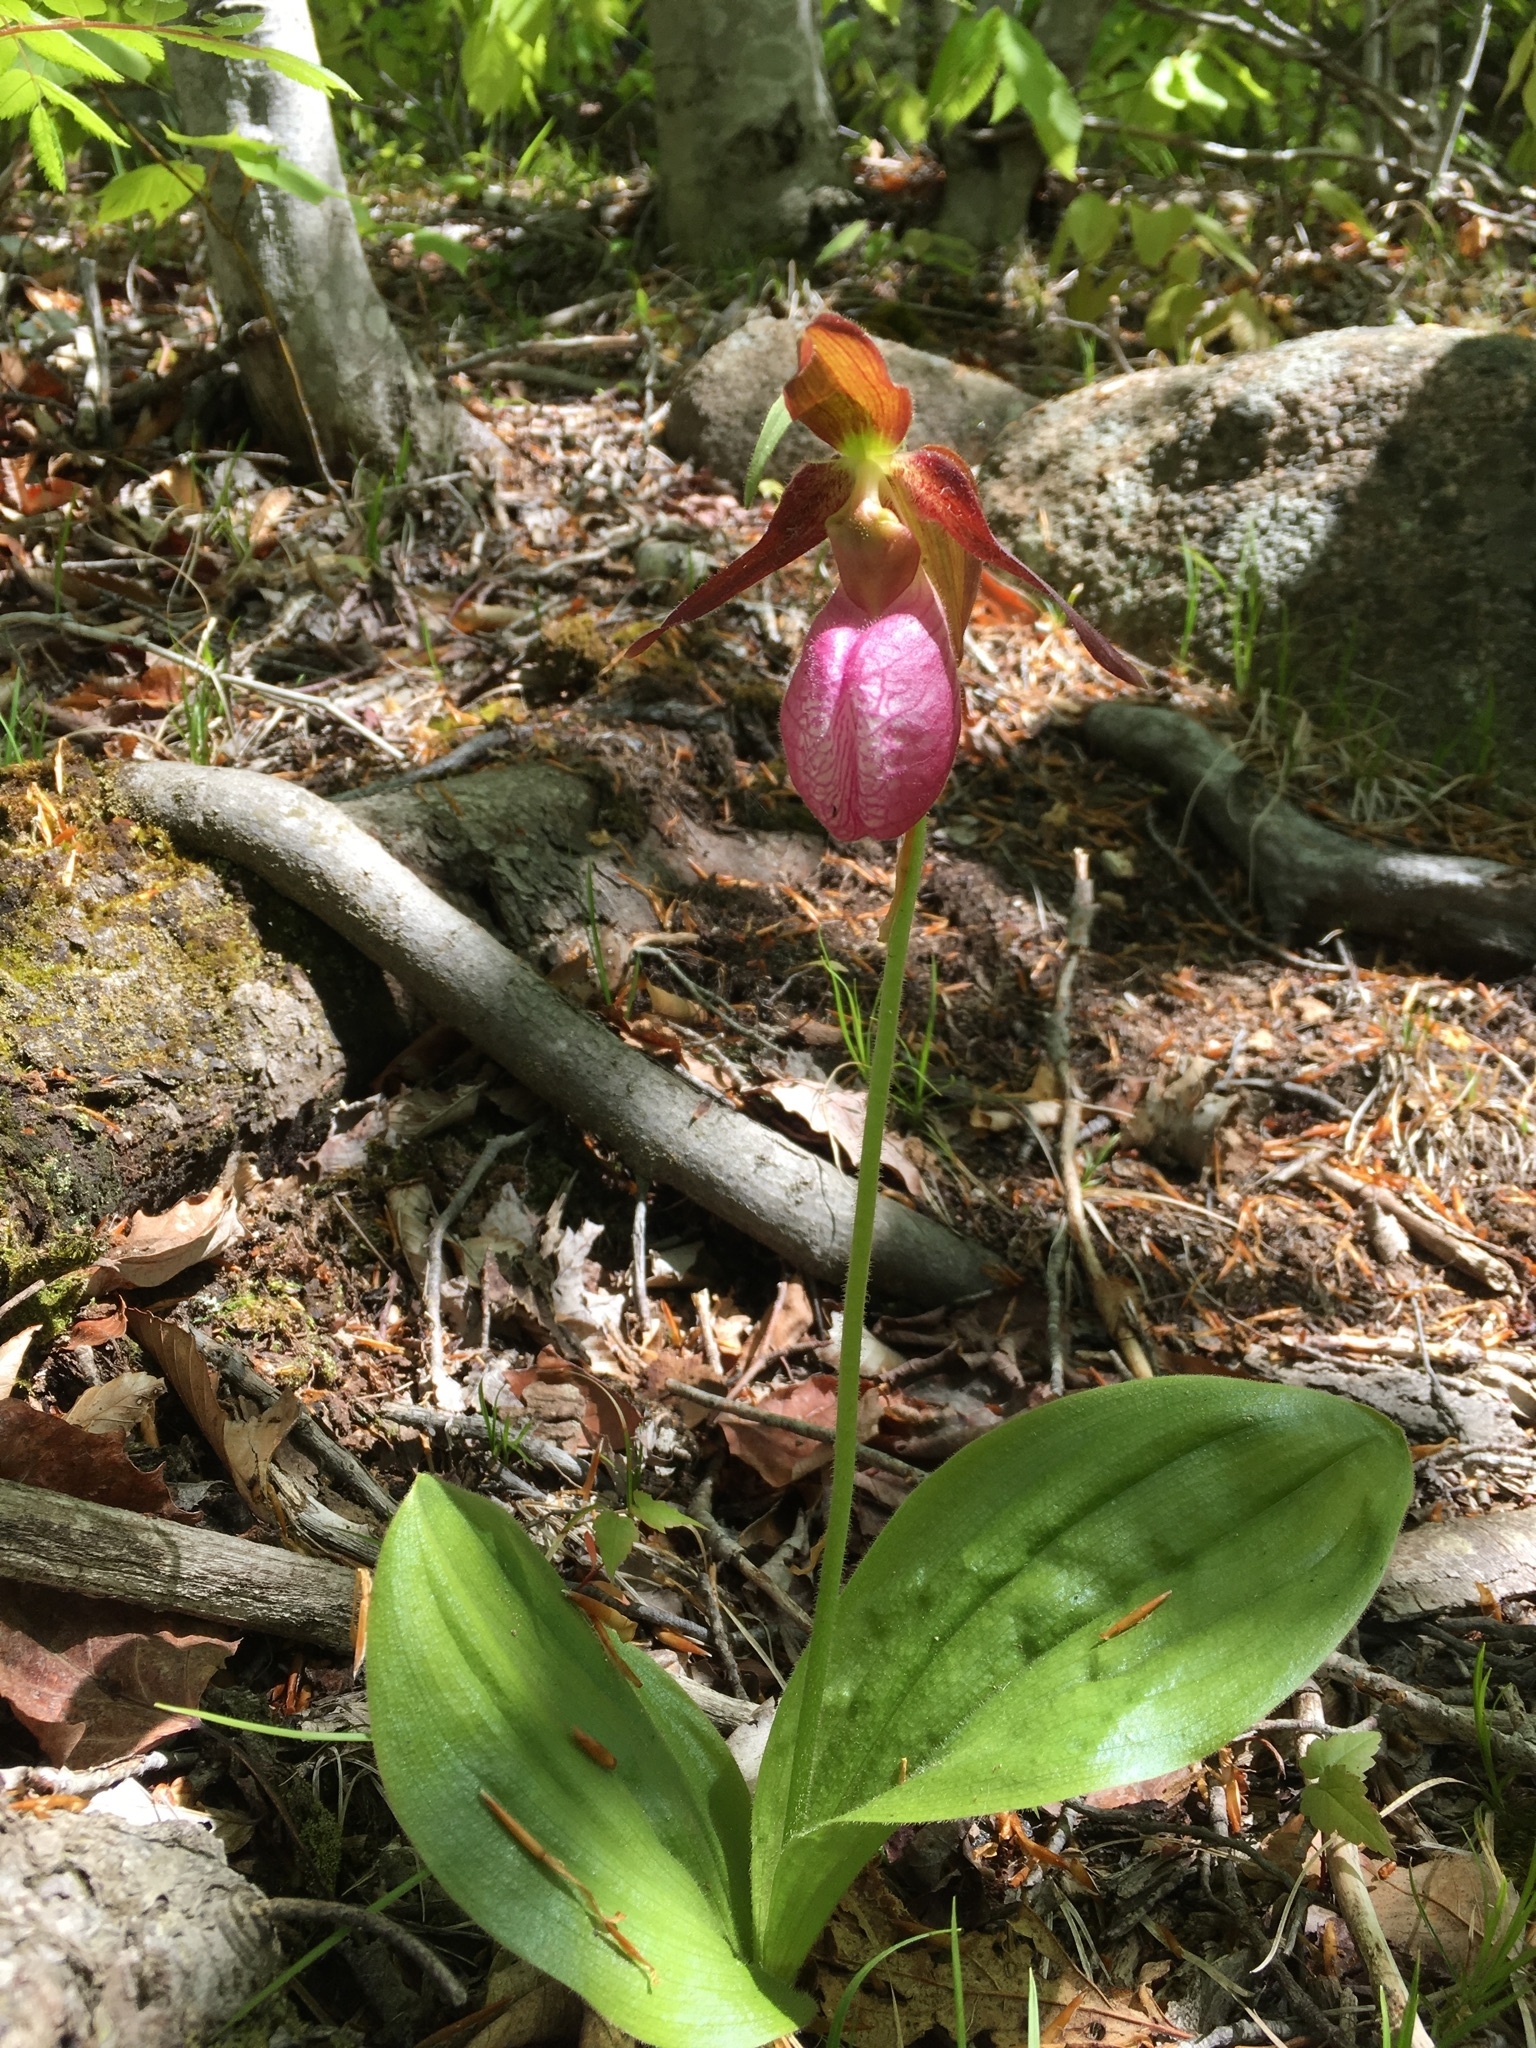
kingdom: Plantae
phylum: Tracheophyta
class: Liliopsida
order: Asparagales
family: Orchidaceae
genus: Cypripedium
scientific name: Cypripedium acaule
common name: Pink lady's-slipper
